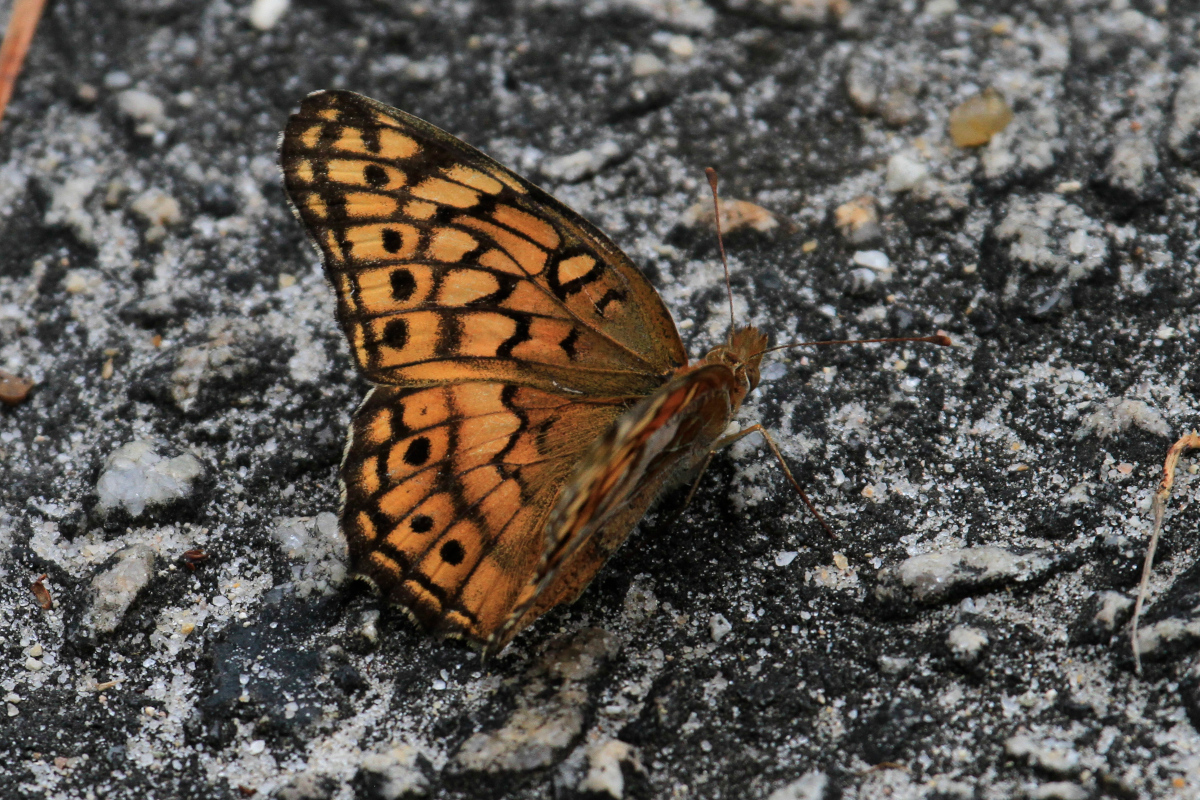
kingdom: Animalia
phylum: Arthropoda
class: Insecta
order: Lepidoptera
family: Nymphalidae
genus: Euptoieta
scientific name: Euptoieta claudia
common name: Variegated fritillary
